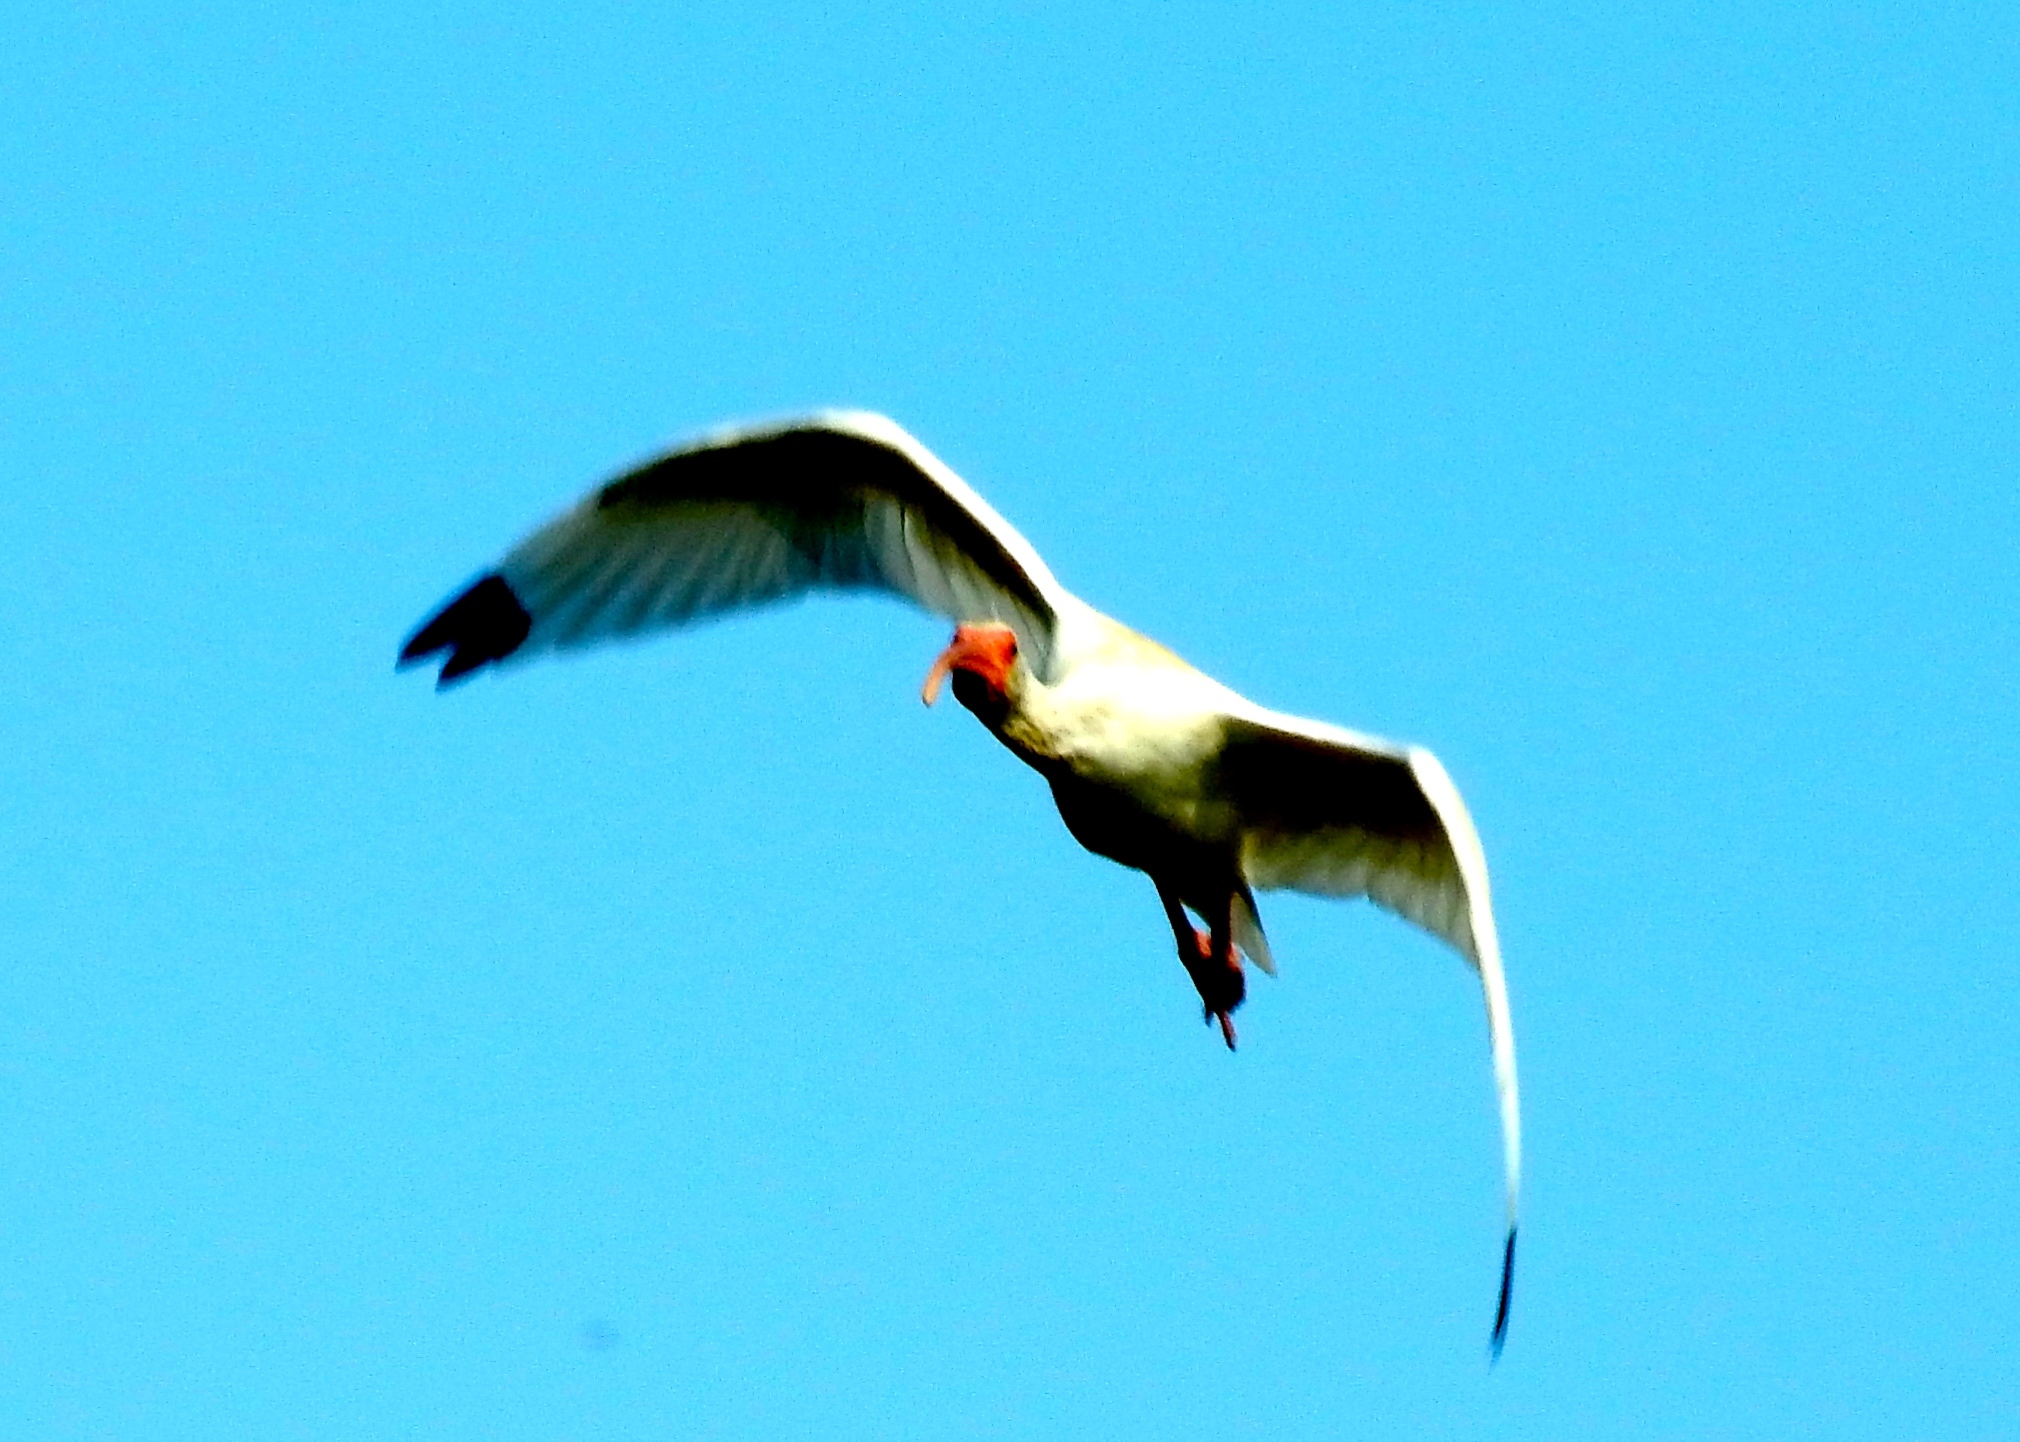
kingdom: Animalia
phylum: Chordata
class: Aves
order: Pelecaniformes
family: Threskiornithidae
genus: Eudocimus
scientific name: Eudocimus albus
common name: White ibis
